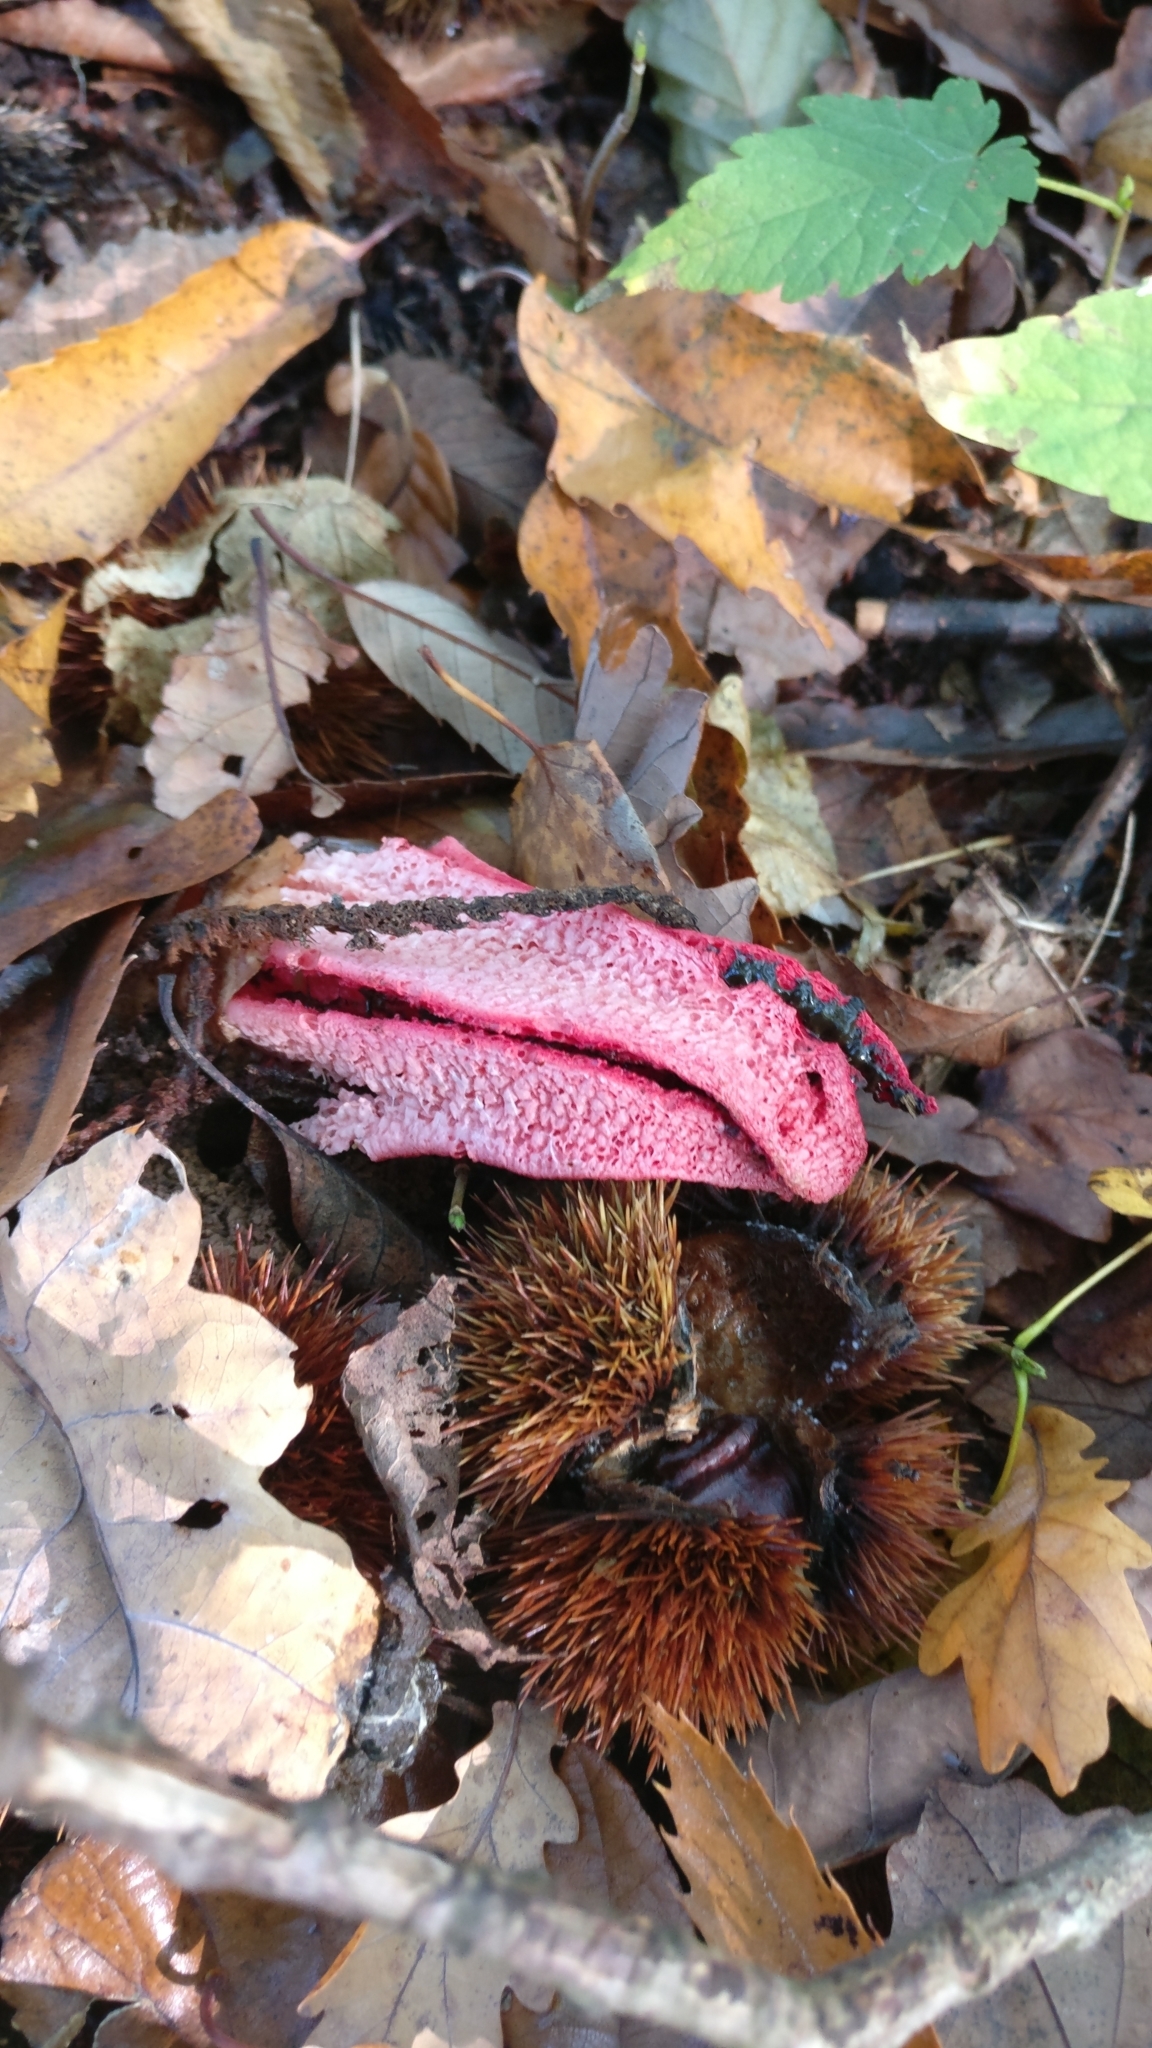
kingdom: Fungi
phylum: Basidiomycota
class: Agaricomycetes
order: Phallales
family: Phallaceae
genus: Clathrus
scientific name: Clathrus archeri
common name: Devil's fingers
